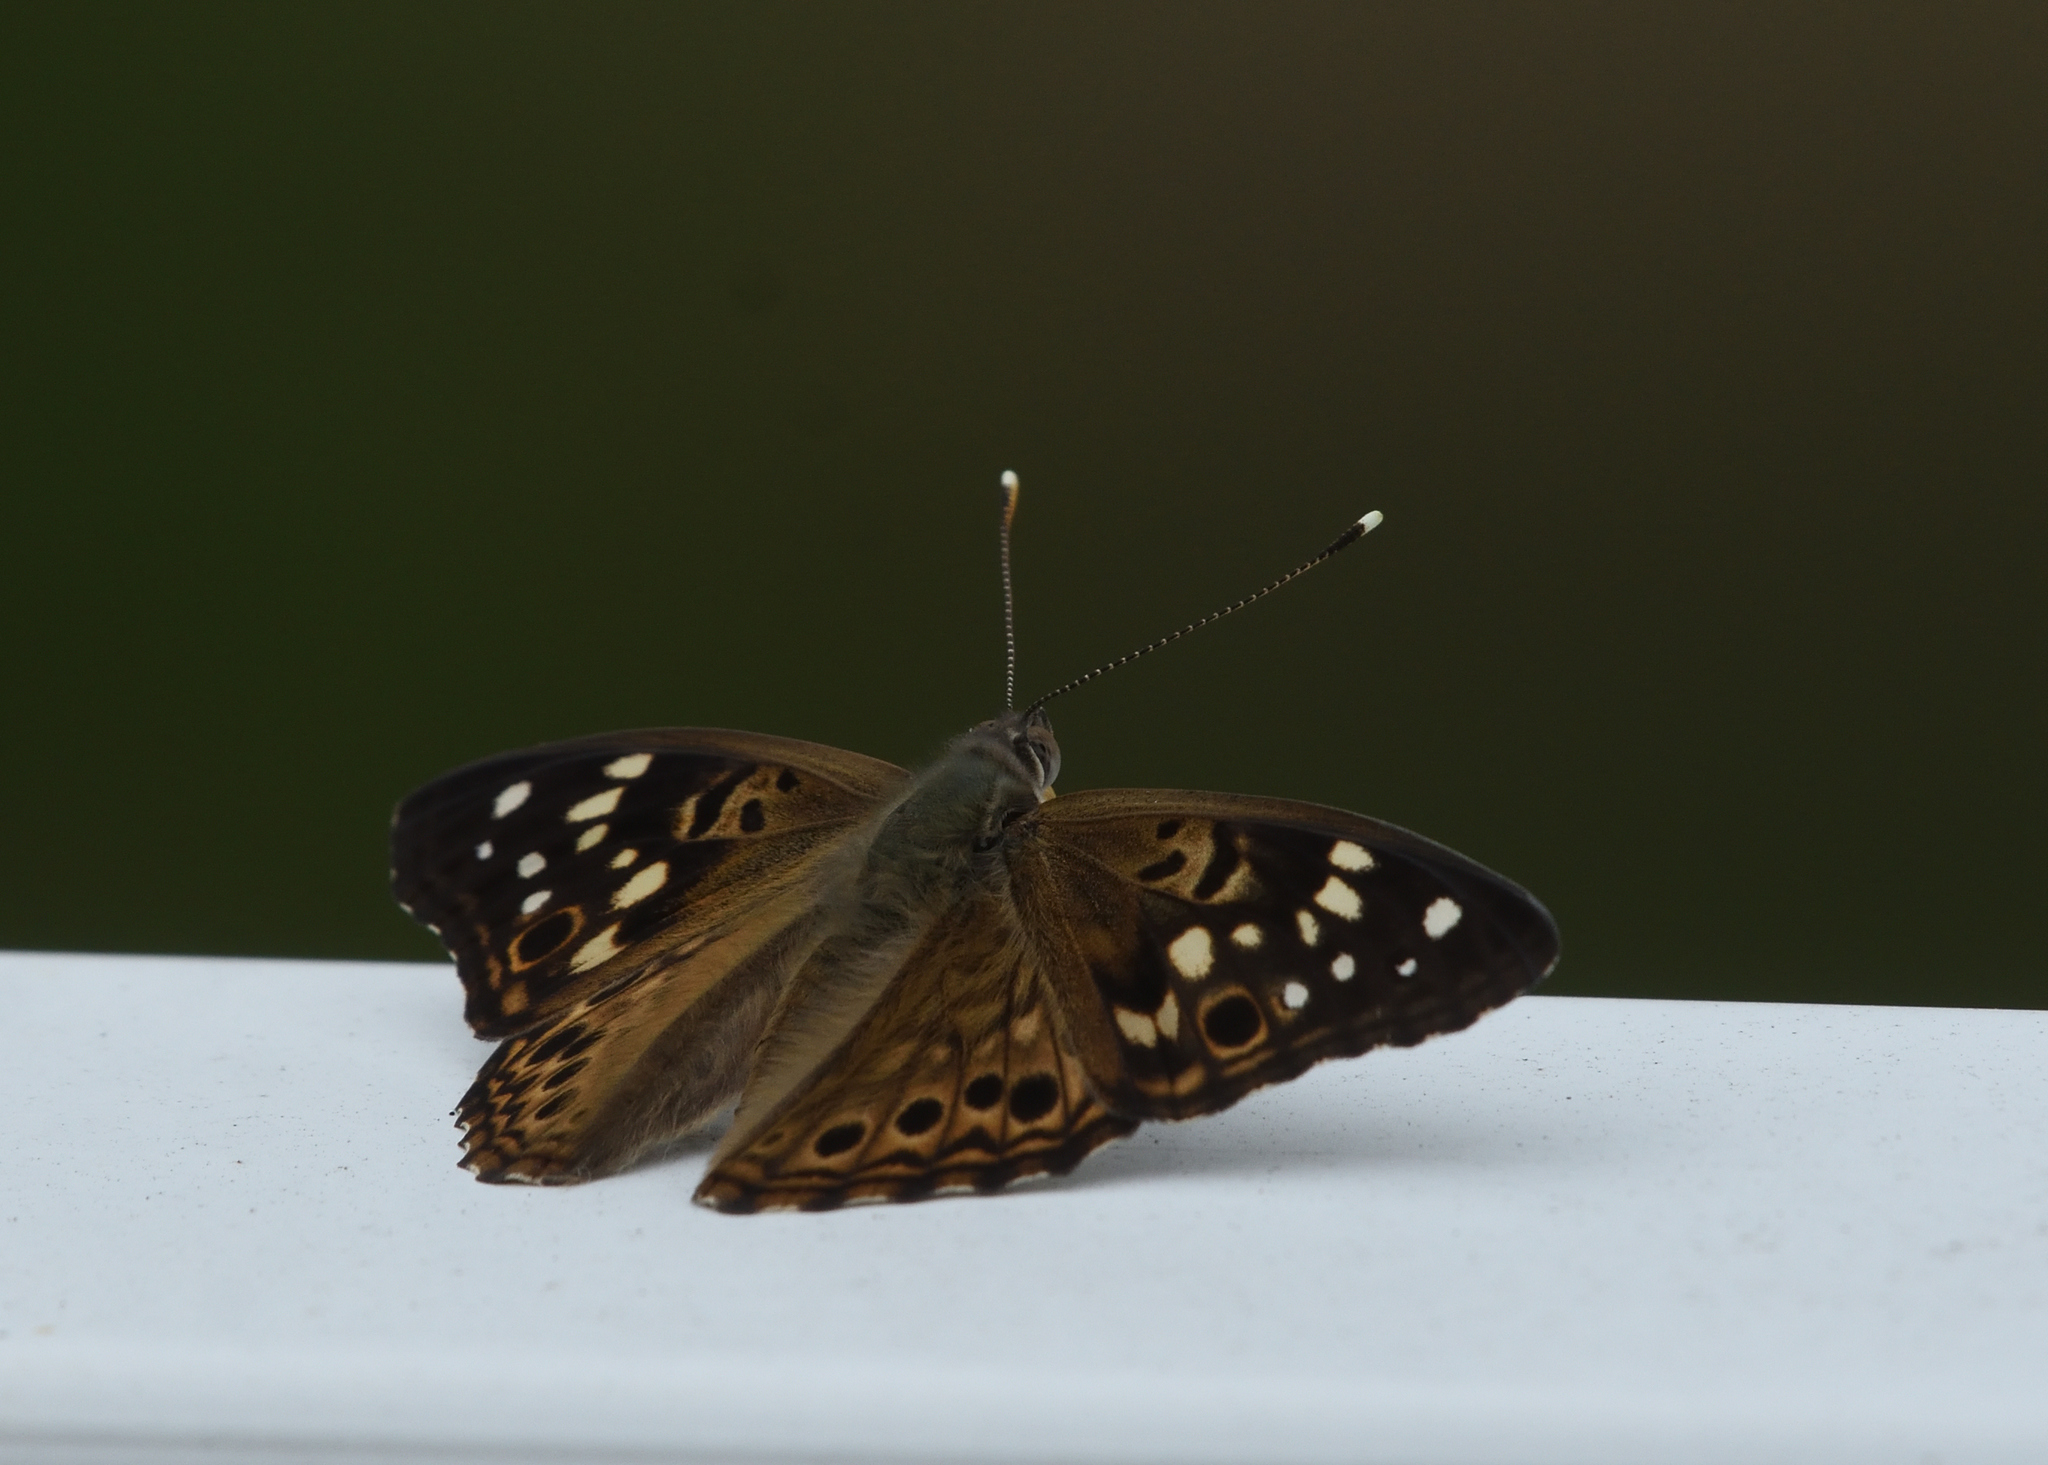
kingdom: Animalia
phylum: Arthropoda
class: Insecta
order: Lepidoptera
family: Nymphalidae
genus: Asterocampa
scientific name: Asterocampa celtis
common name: Hackberry emperor
